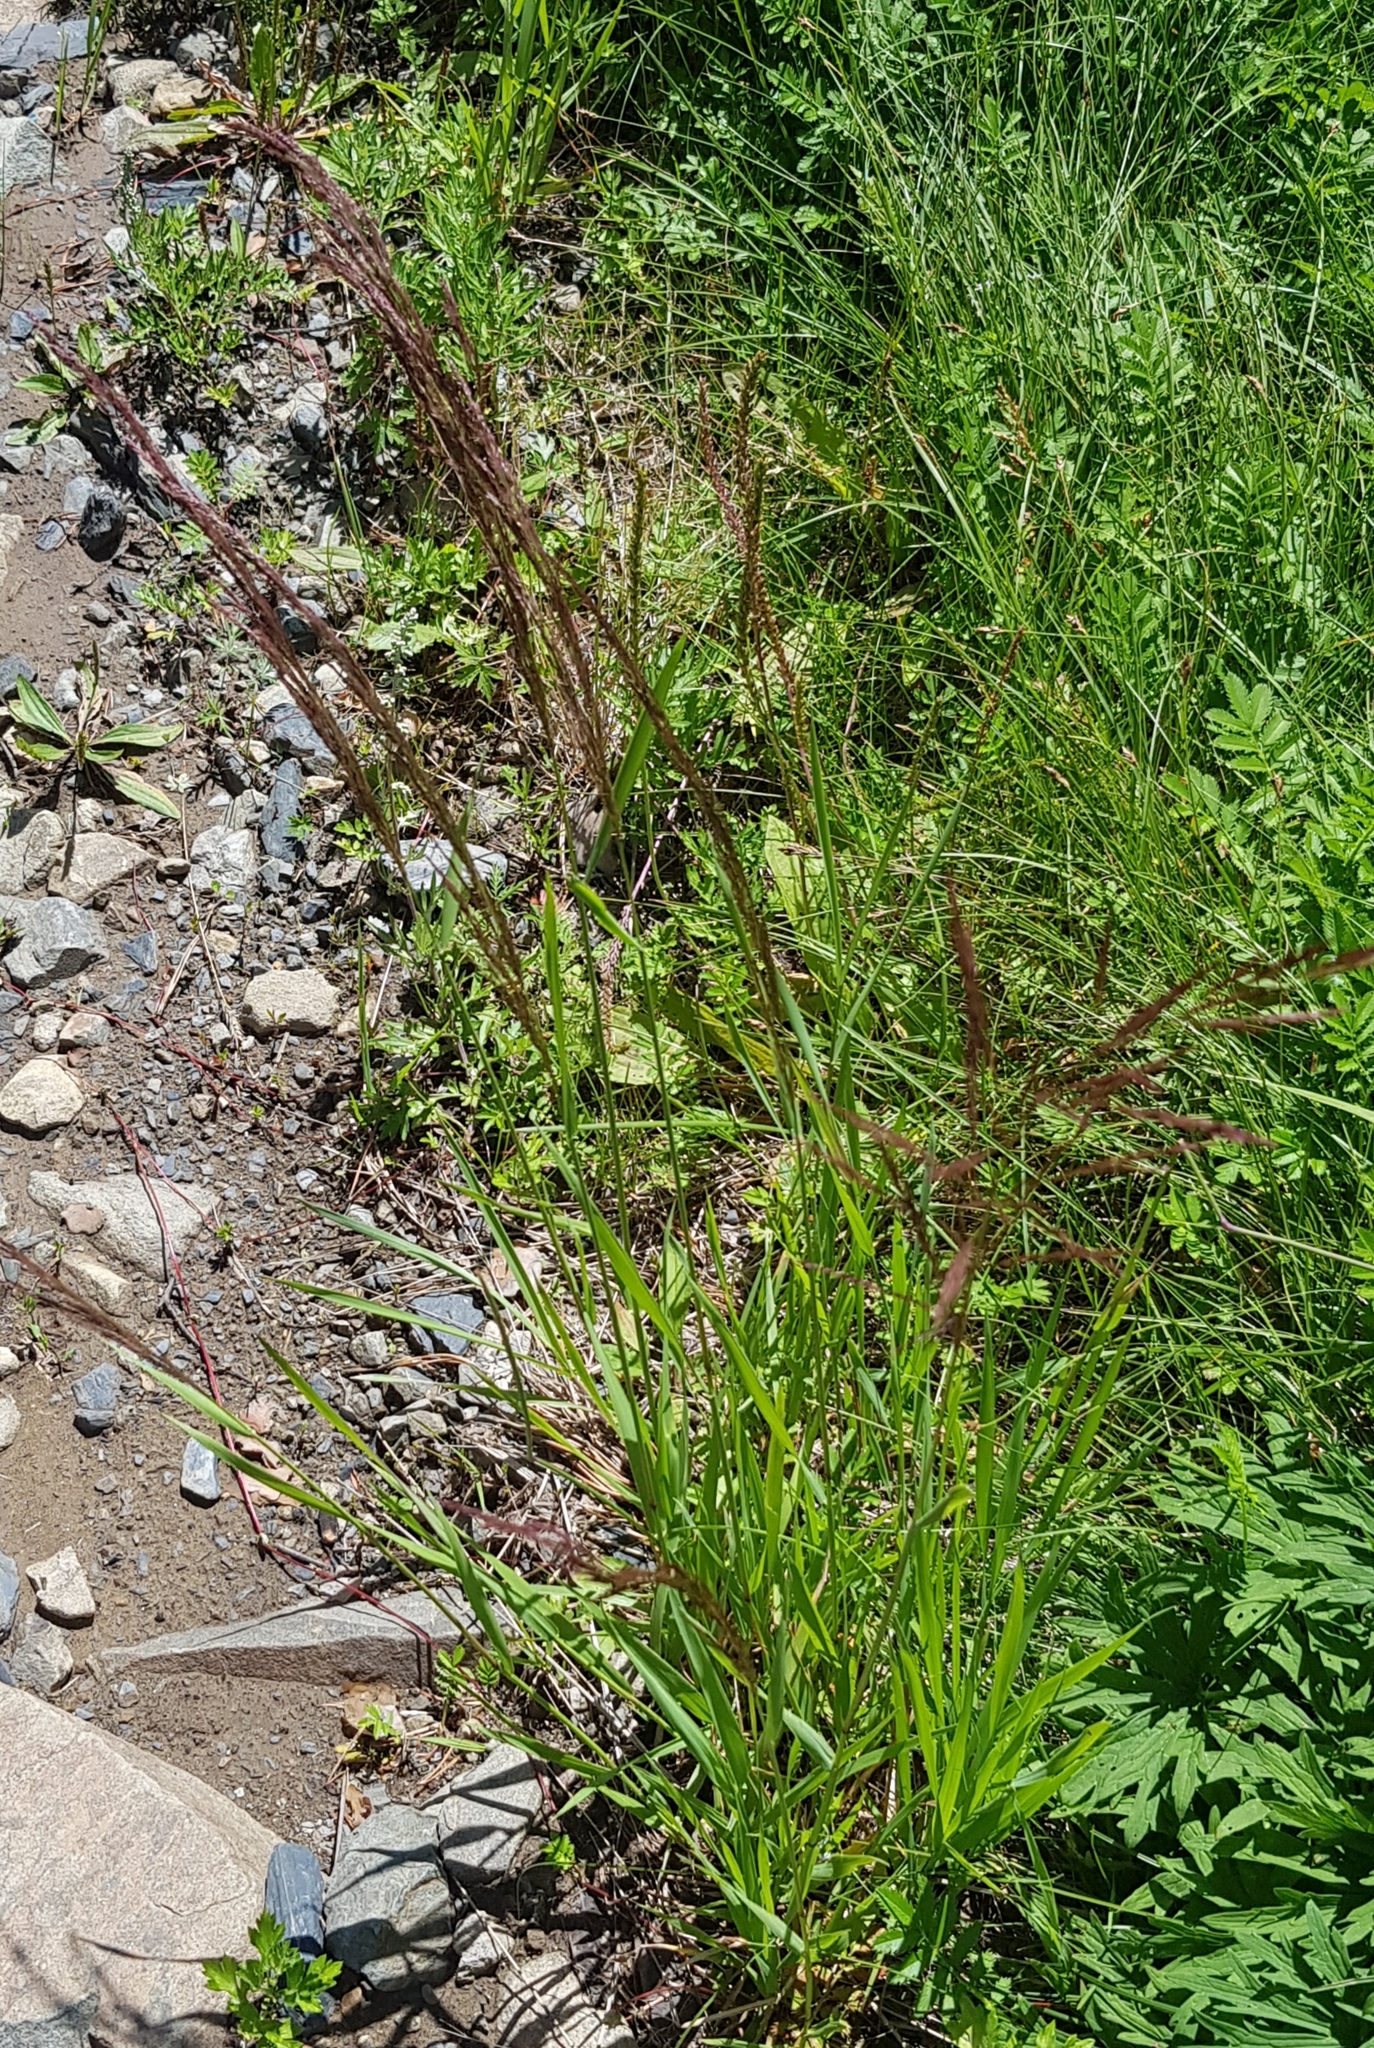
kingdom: Plantae
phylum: Tracheophyta
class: Liliopsida
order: Poales
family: Poaceae
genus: Agrostis
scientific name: Agrostis gigantea
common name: Black bent
